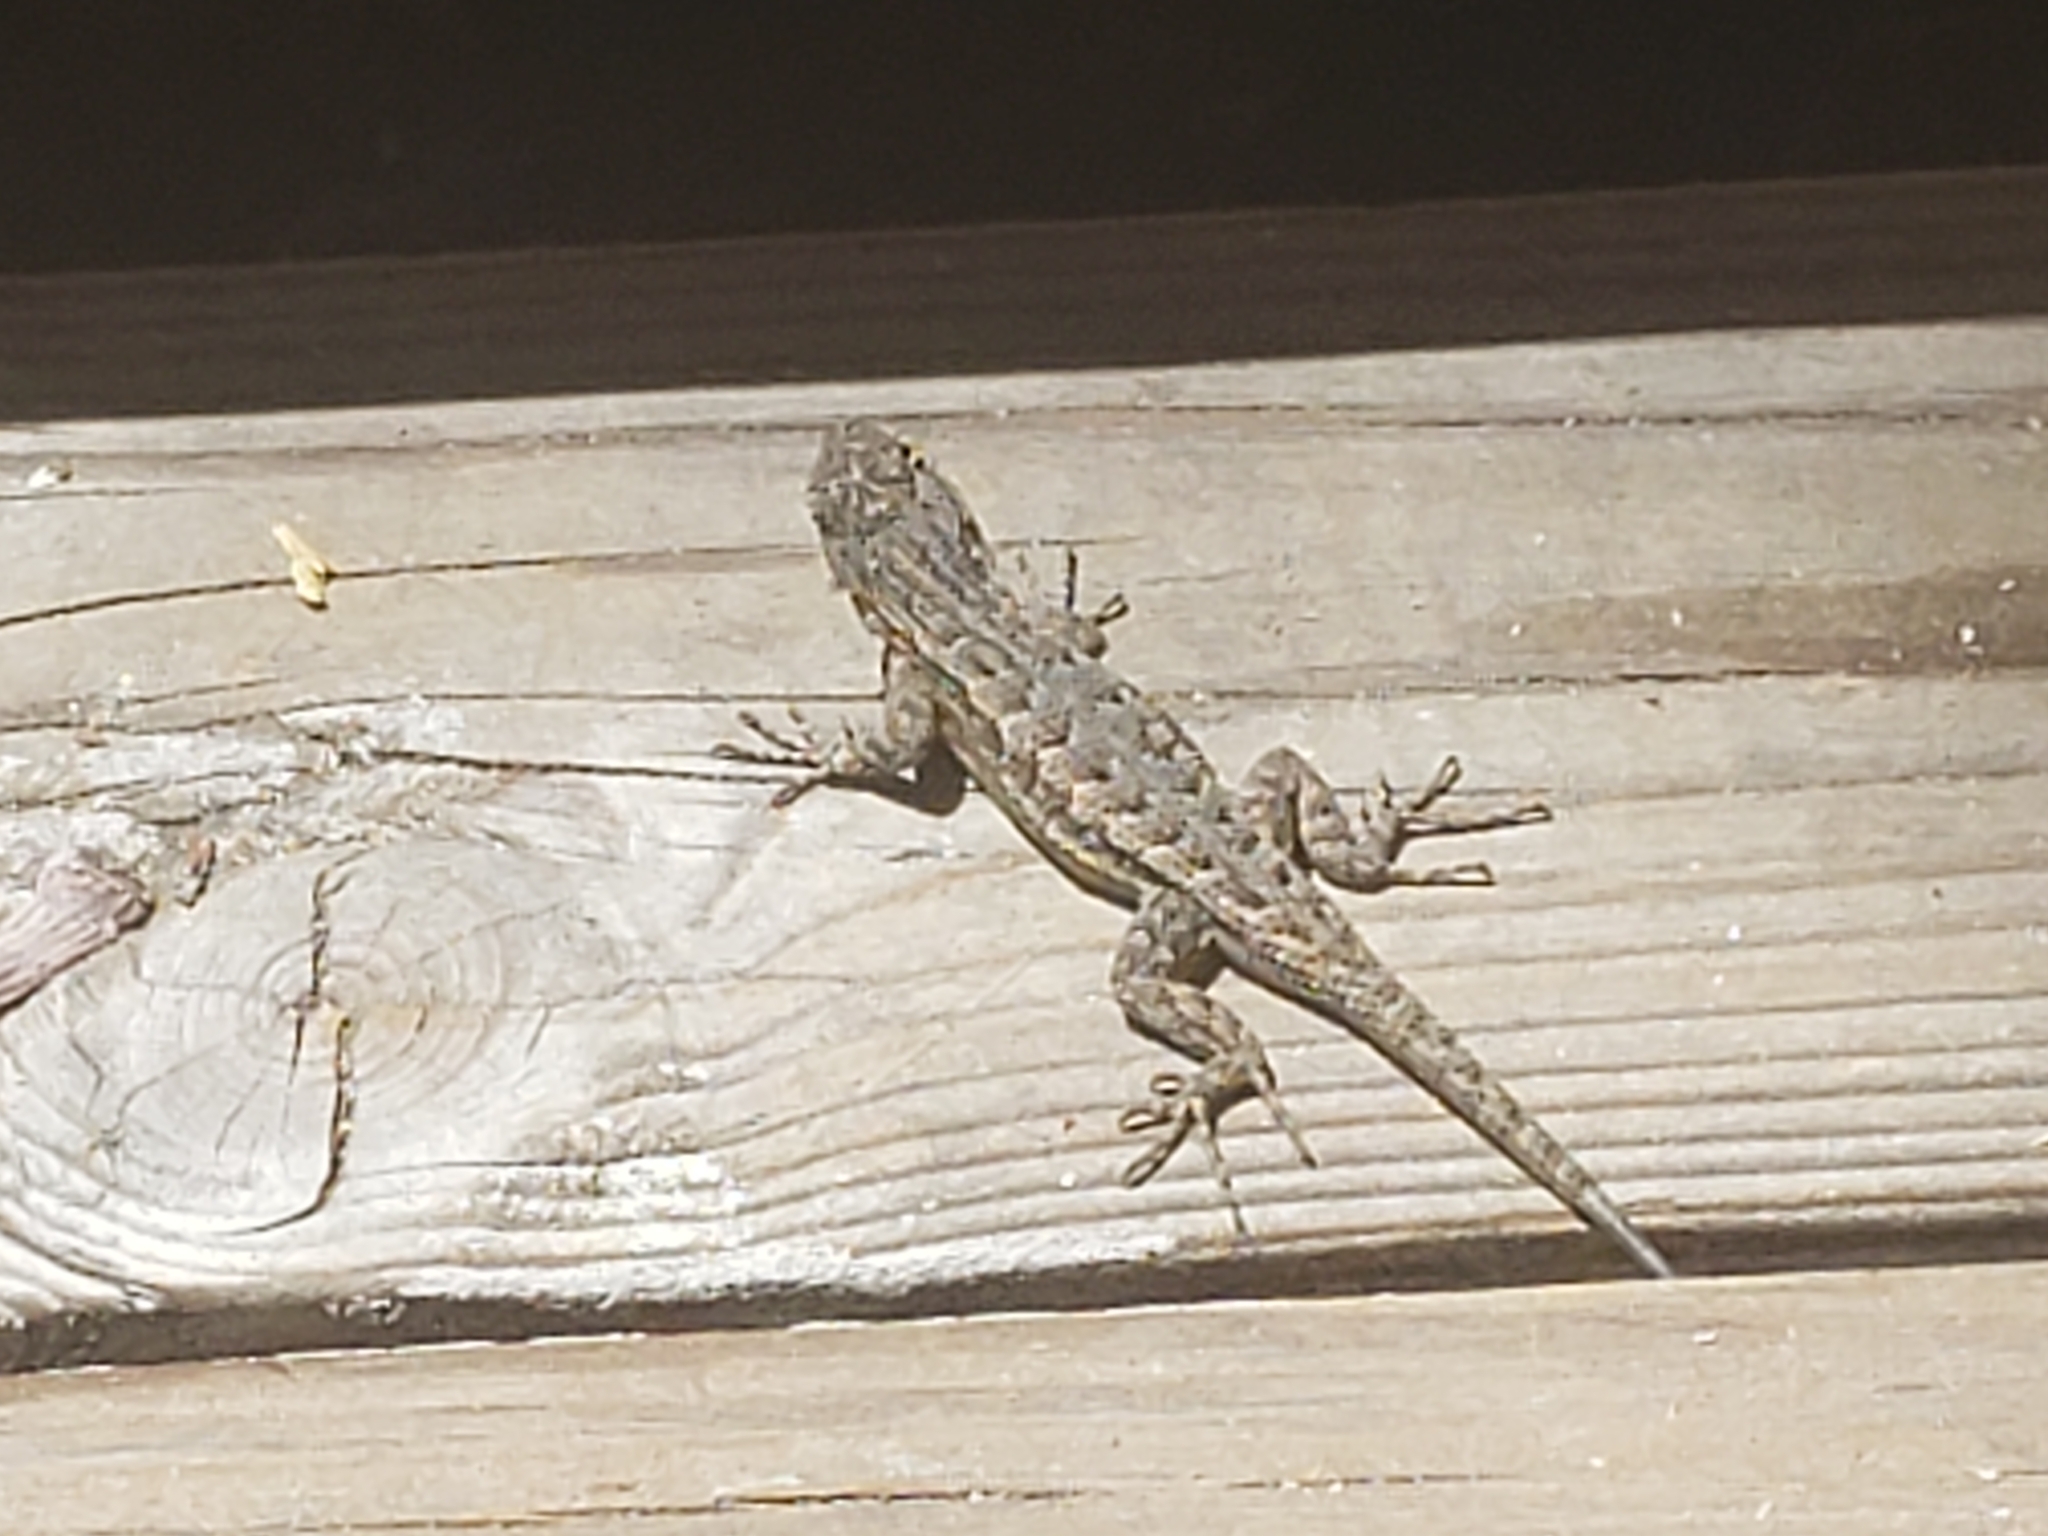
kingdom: Animalia
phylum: Chordata
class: Squamata
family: Phrynosomatidae
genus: Sceloporus
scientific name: Sceloporus occidentalis
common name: Western fence lizard
